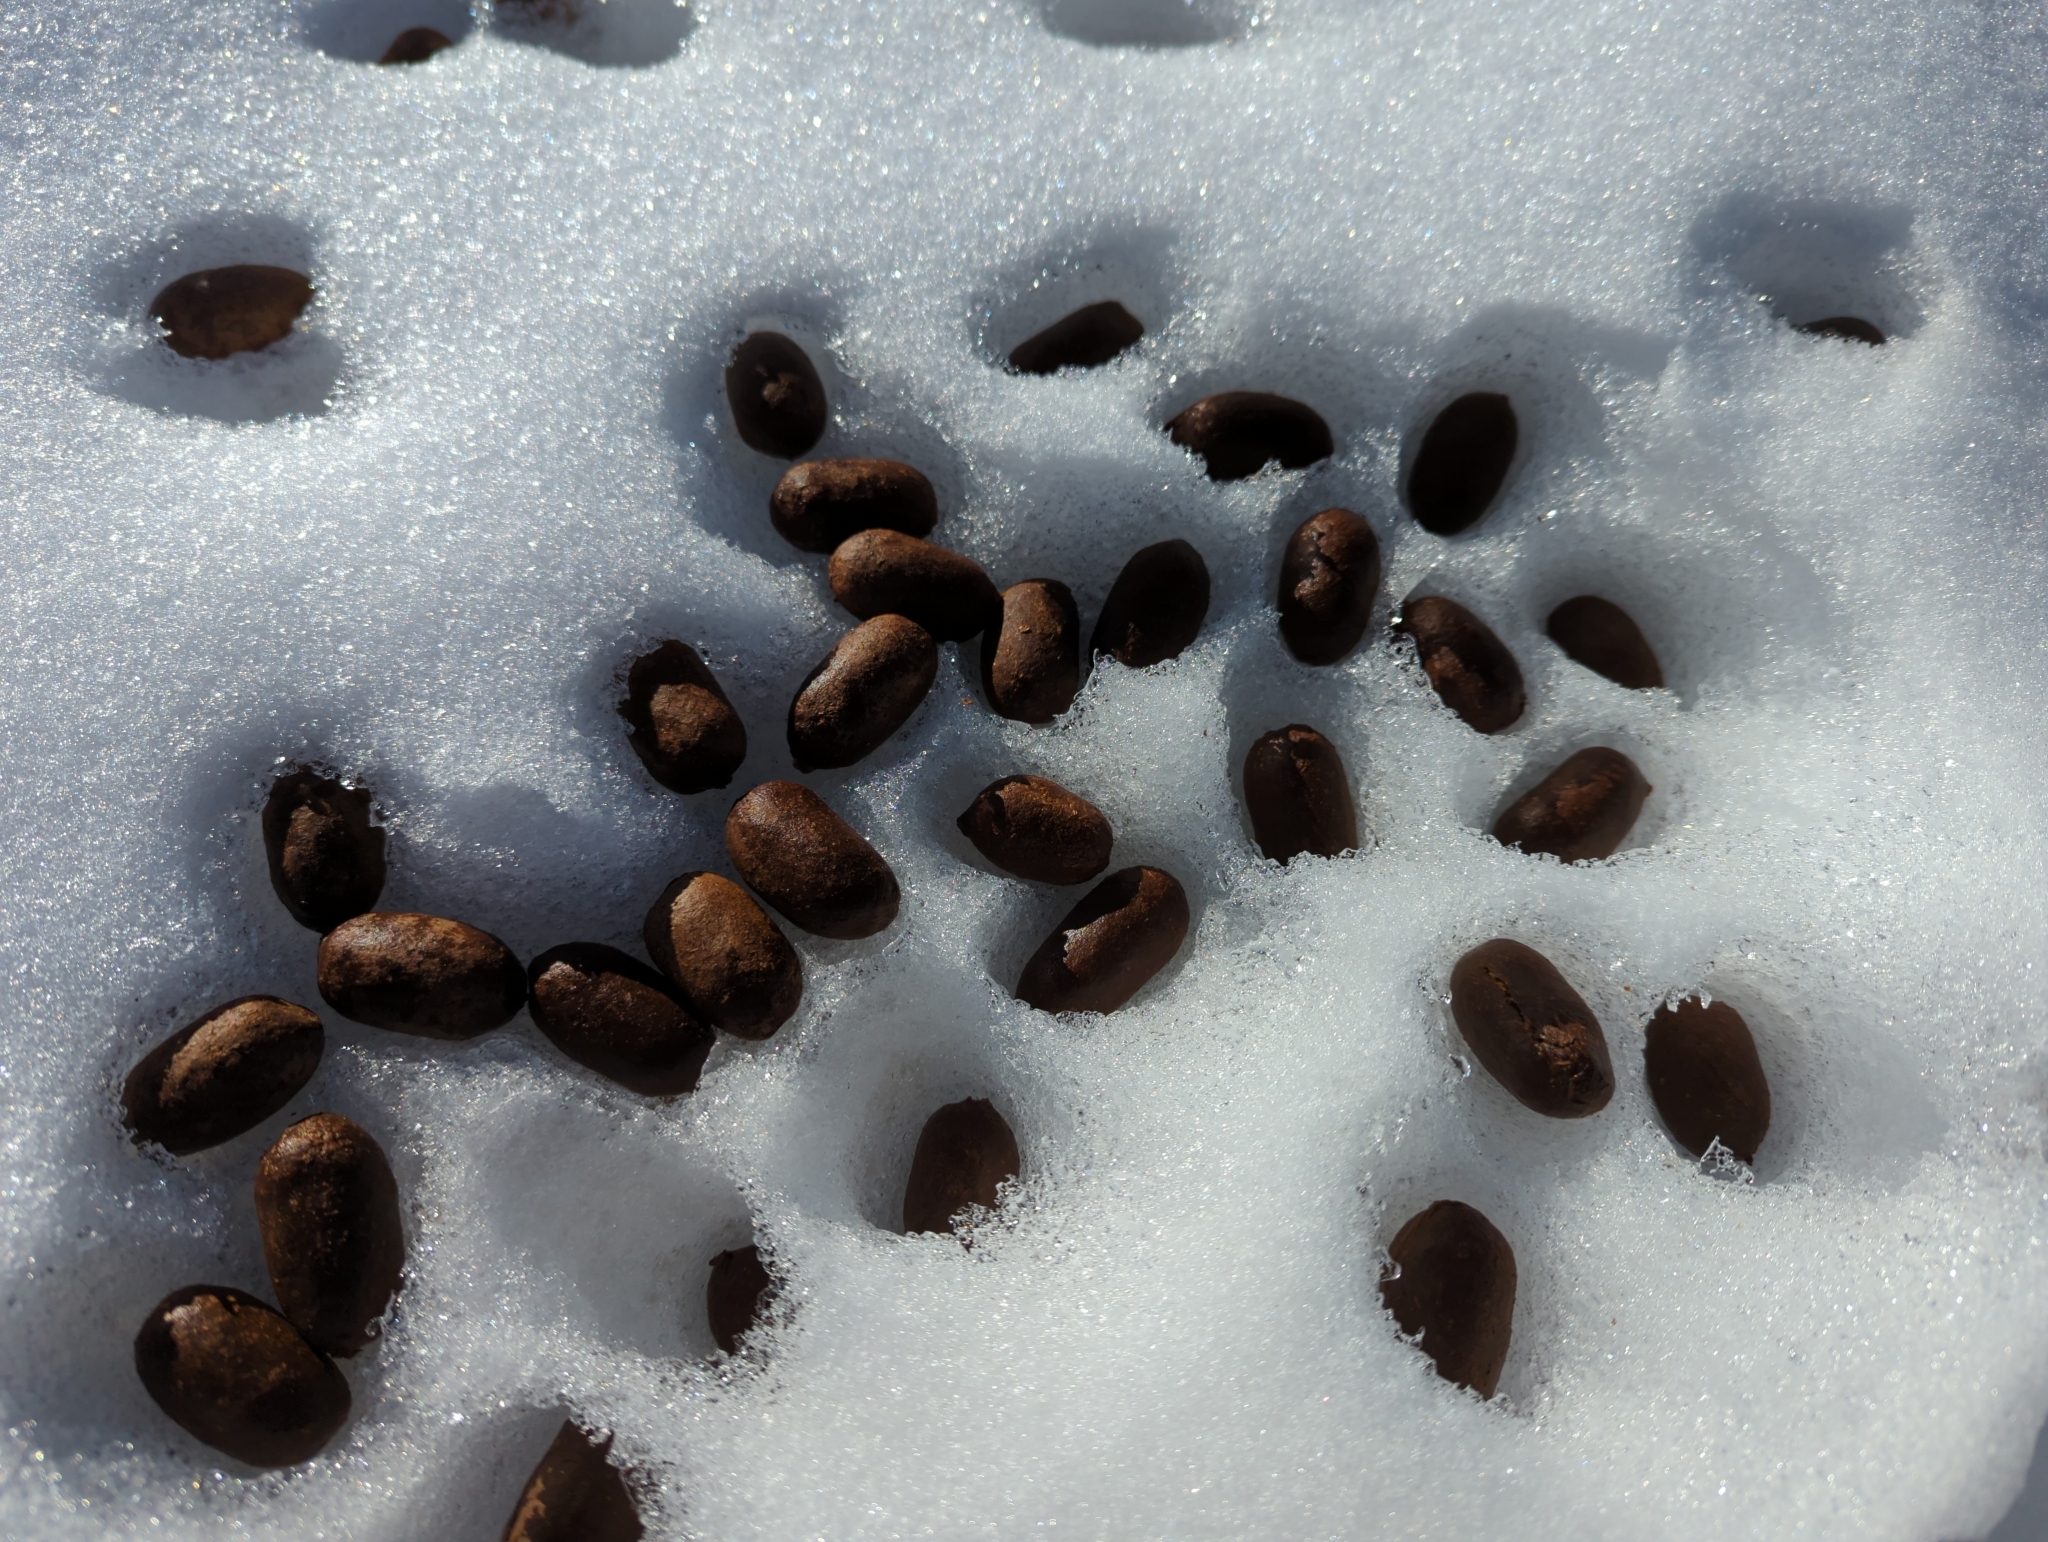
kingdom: Animalia
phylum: Chordata
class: Mammalia
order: Artiodactyla
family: Cervidae
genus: Alces
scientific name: Alces alces
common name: Moose
